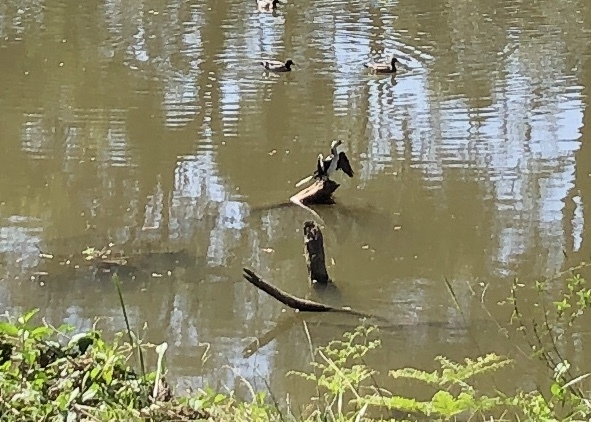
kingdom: Animalia
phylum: Chordata
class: Aves
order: Suliformes
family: Phalacrocoracidae
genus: Microcarbo
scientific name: Microcarbo melanoleucos
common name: Little pied cormorant
